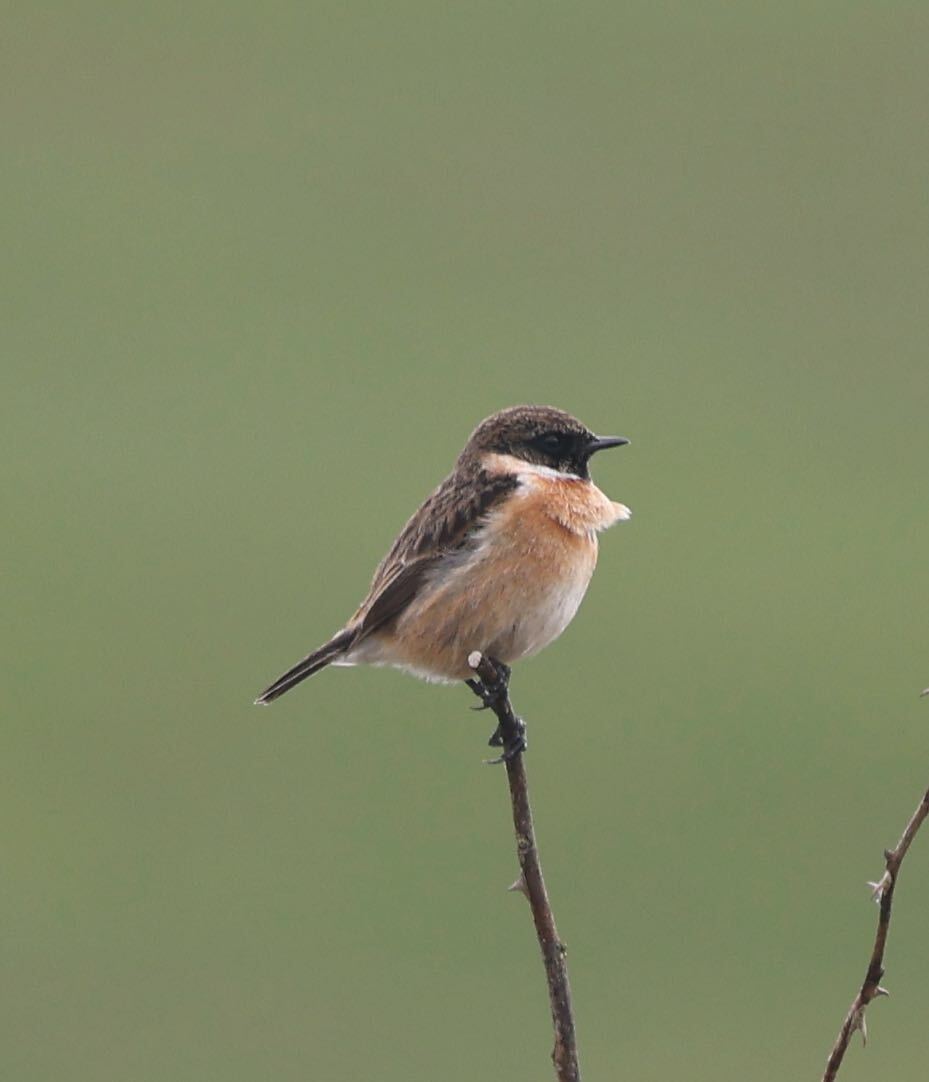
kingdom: Animalia
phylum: Chordata
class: Aves
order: Passeriformes
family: Muscicapidae
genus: Saxicola
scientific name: Saxicola rubicola
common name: European stonechat
